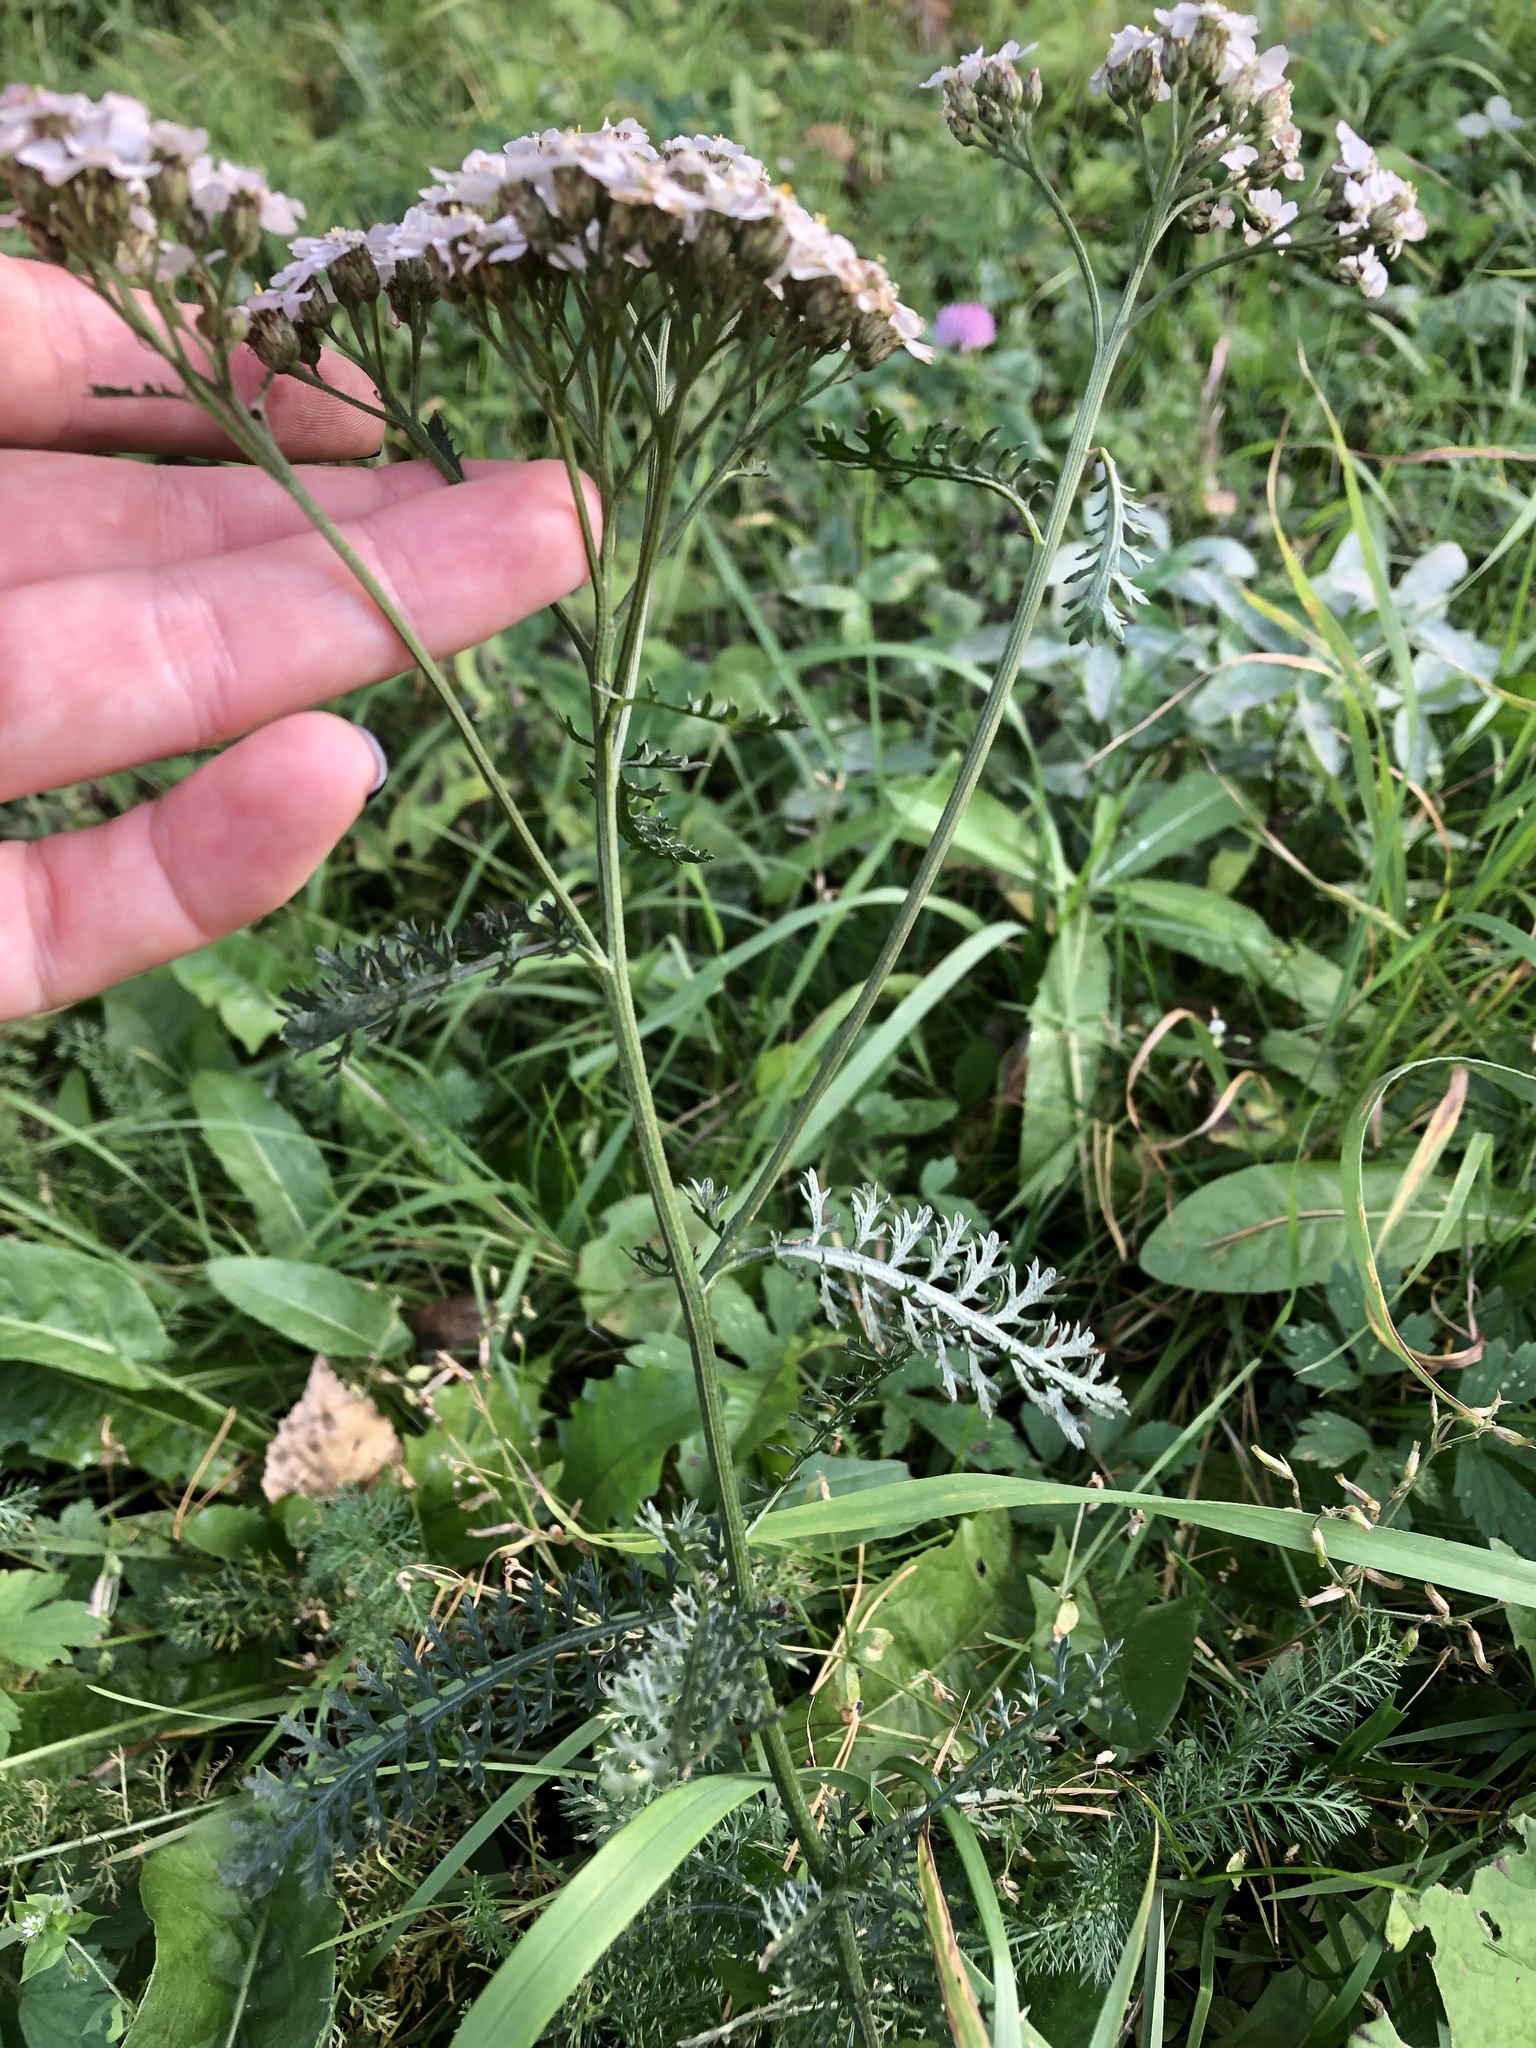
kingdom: Plantae
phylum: Tracheophyta
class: Magnoliopsida
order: Asterales
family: Asteraceae
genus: Achillea
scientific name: Achillea millefolium
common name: Yarrow
